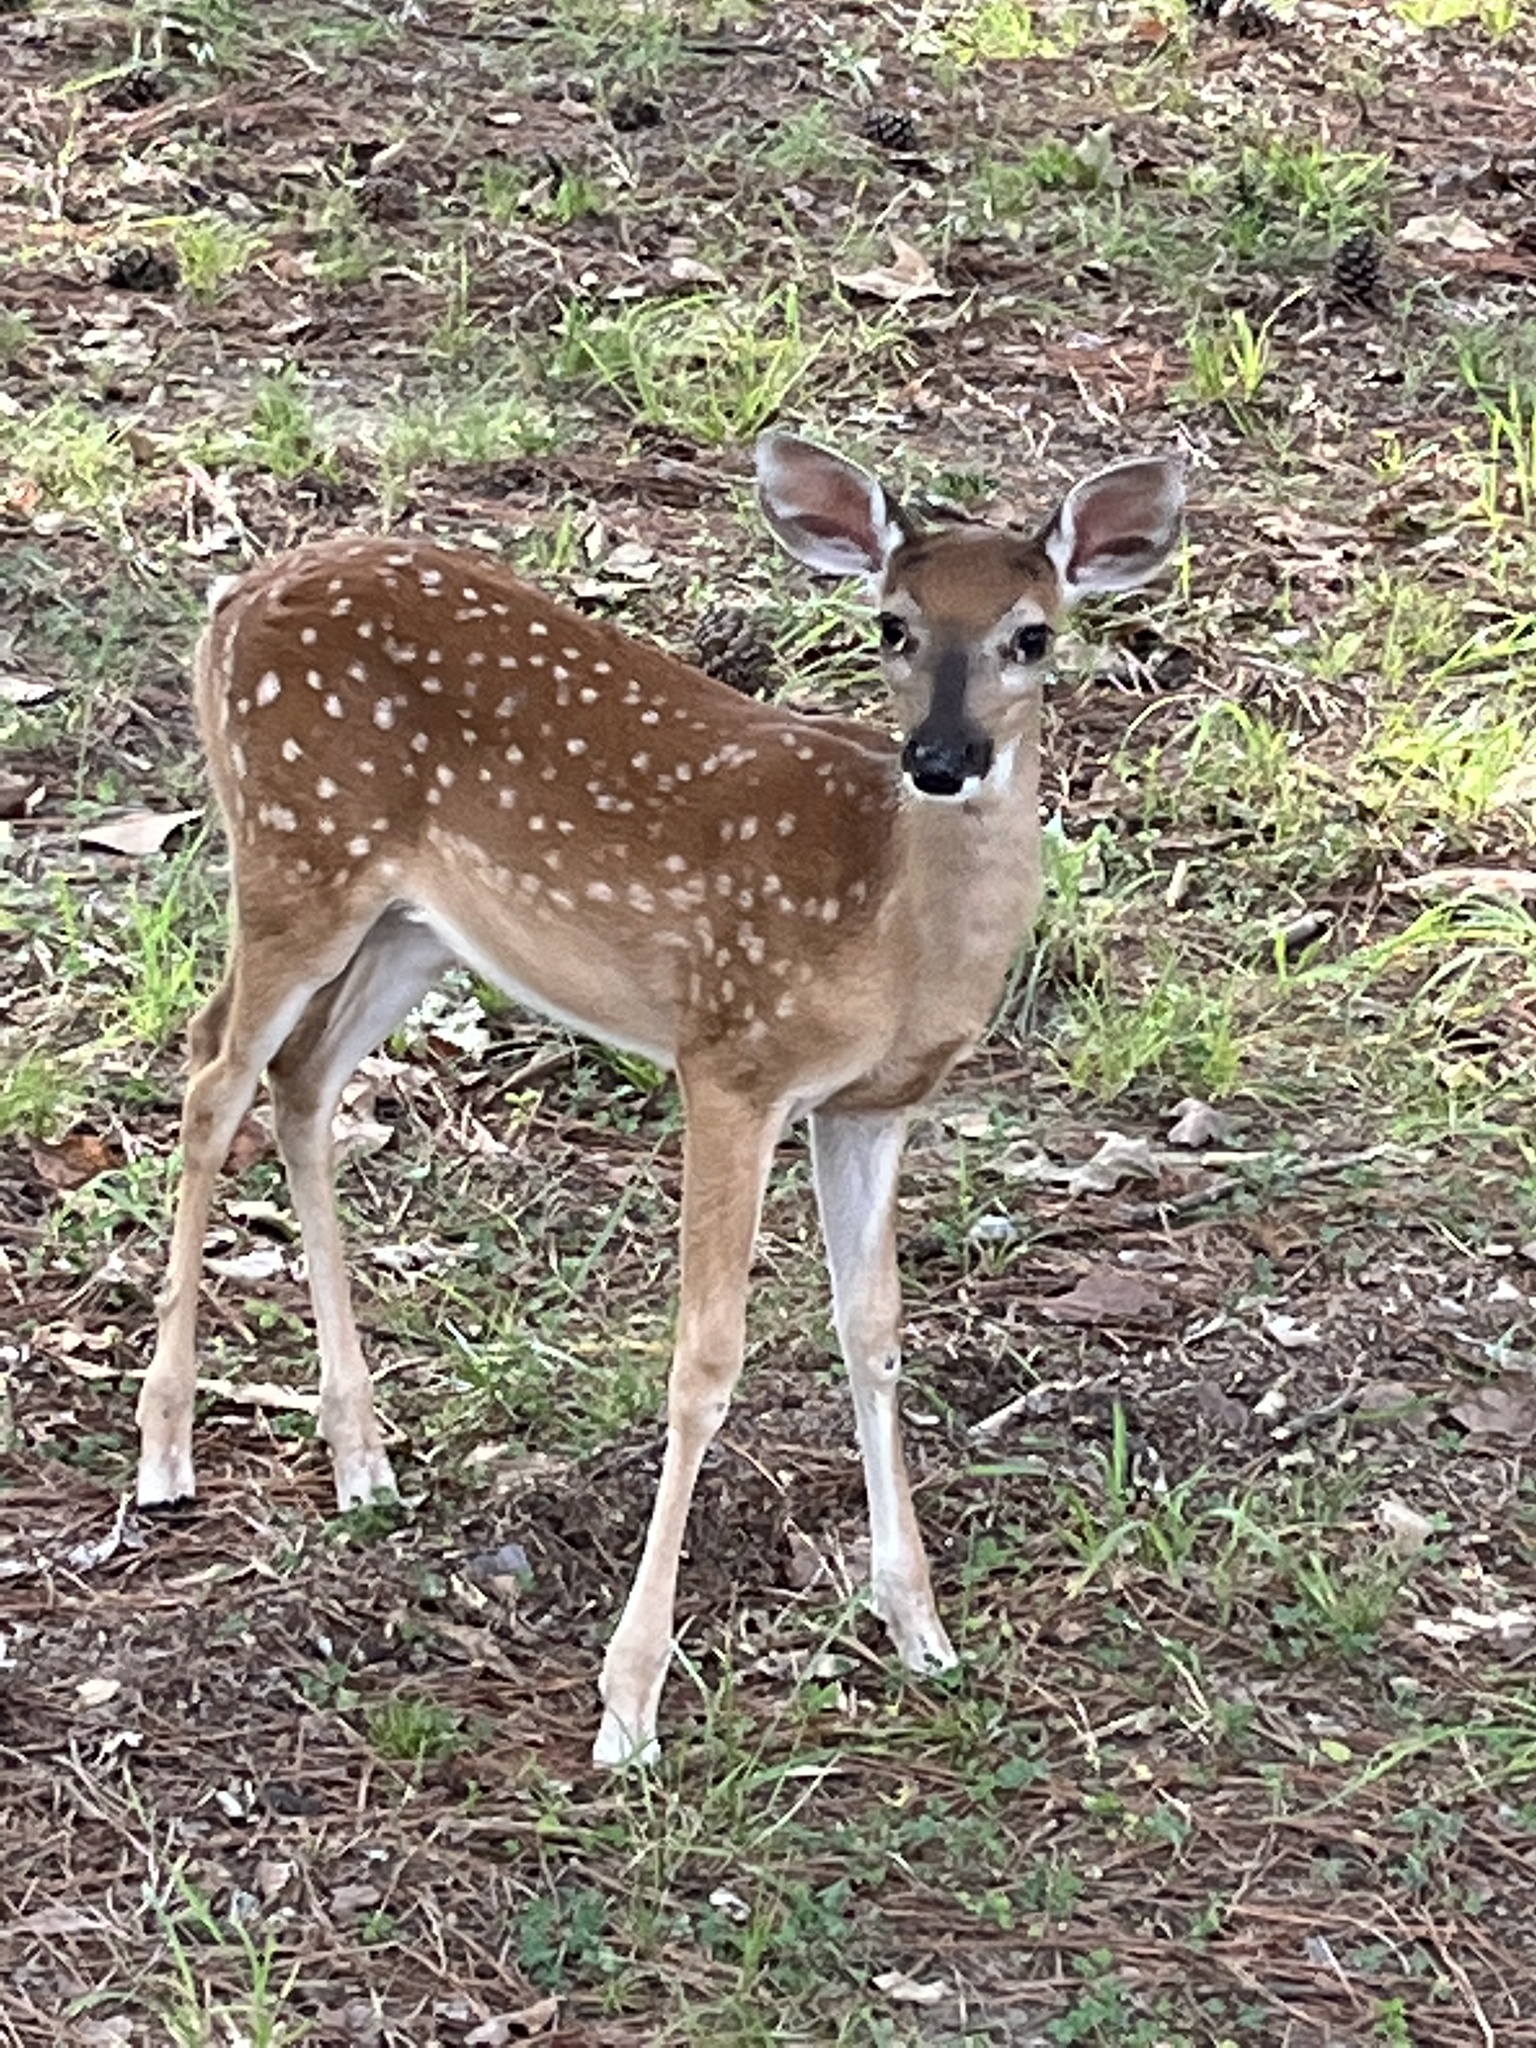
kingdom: Animalia
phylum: Chordata
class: Mammalia
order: Artiodactyla
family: Cervidae
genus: Odocoileus
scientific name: Odocoileus virginianus
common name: White-tailed deer
